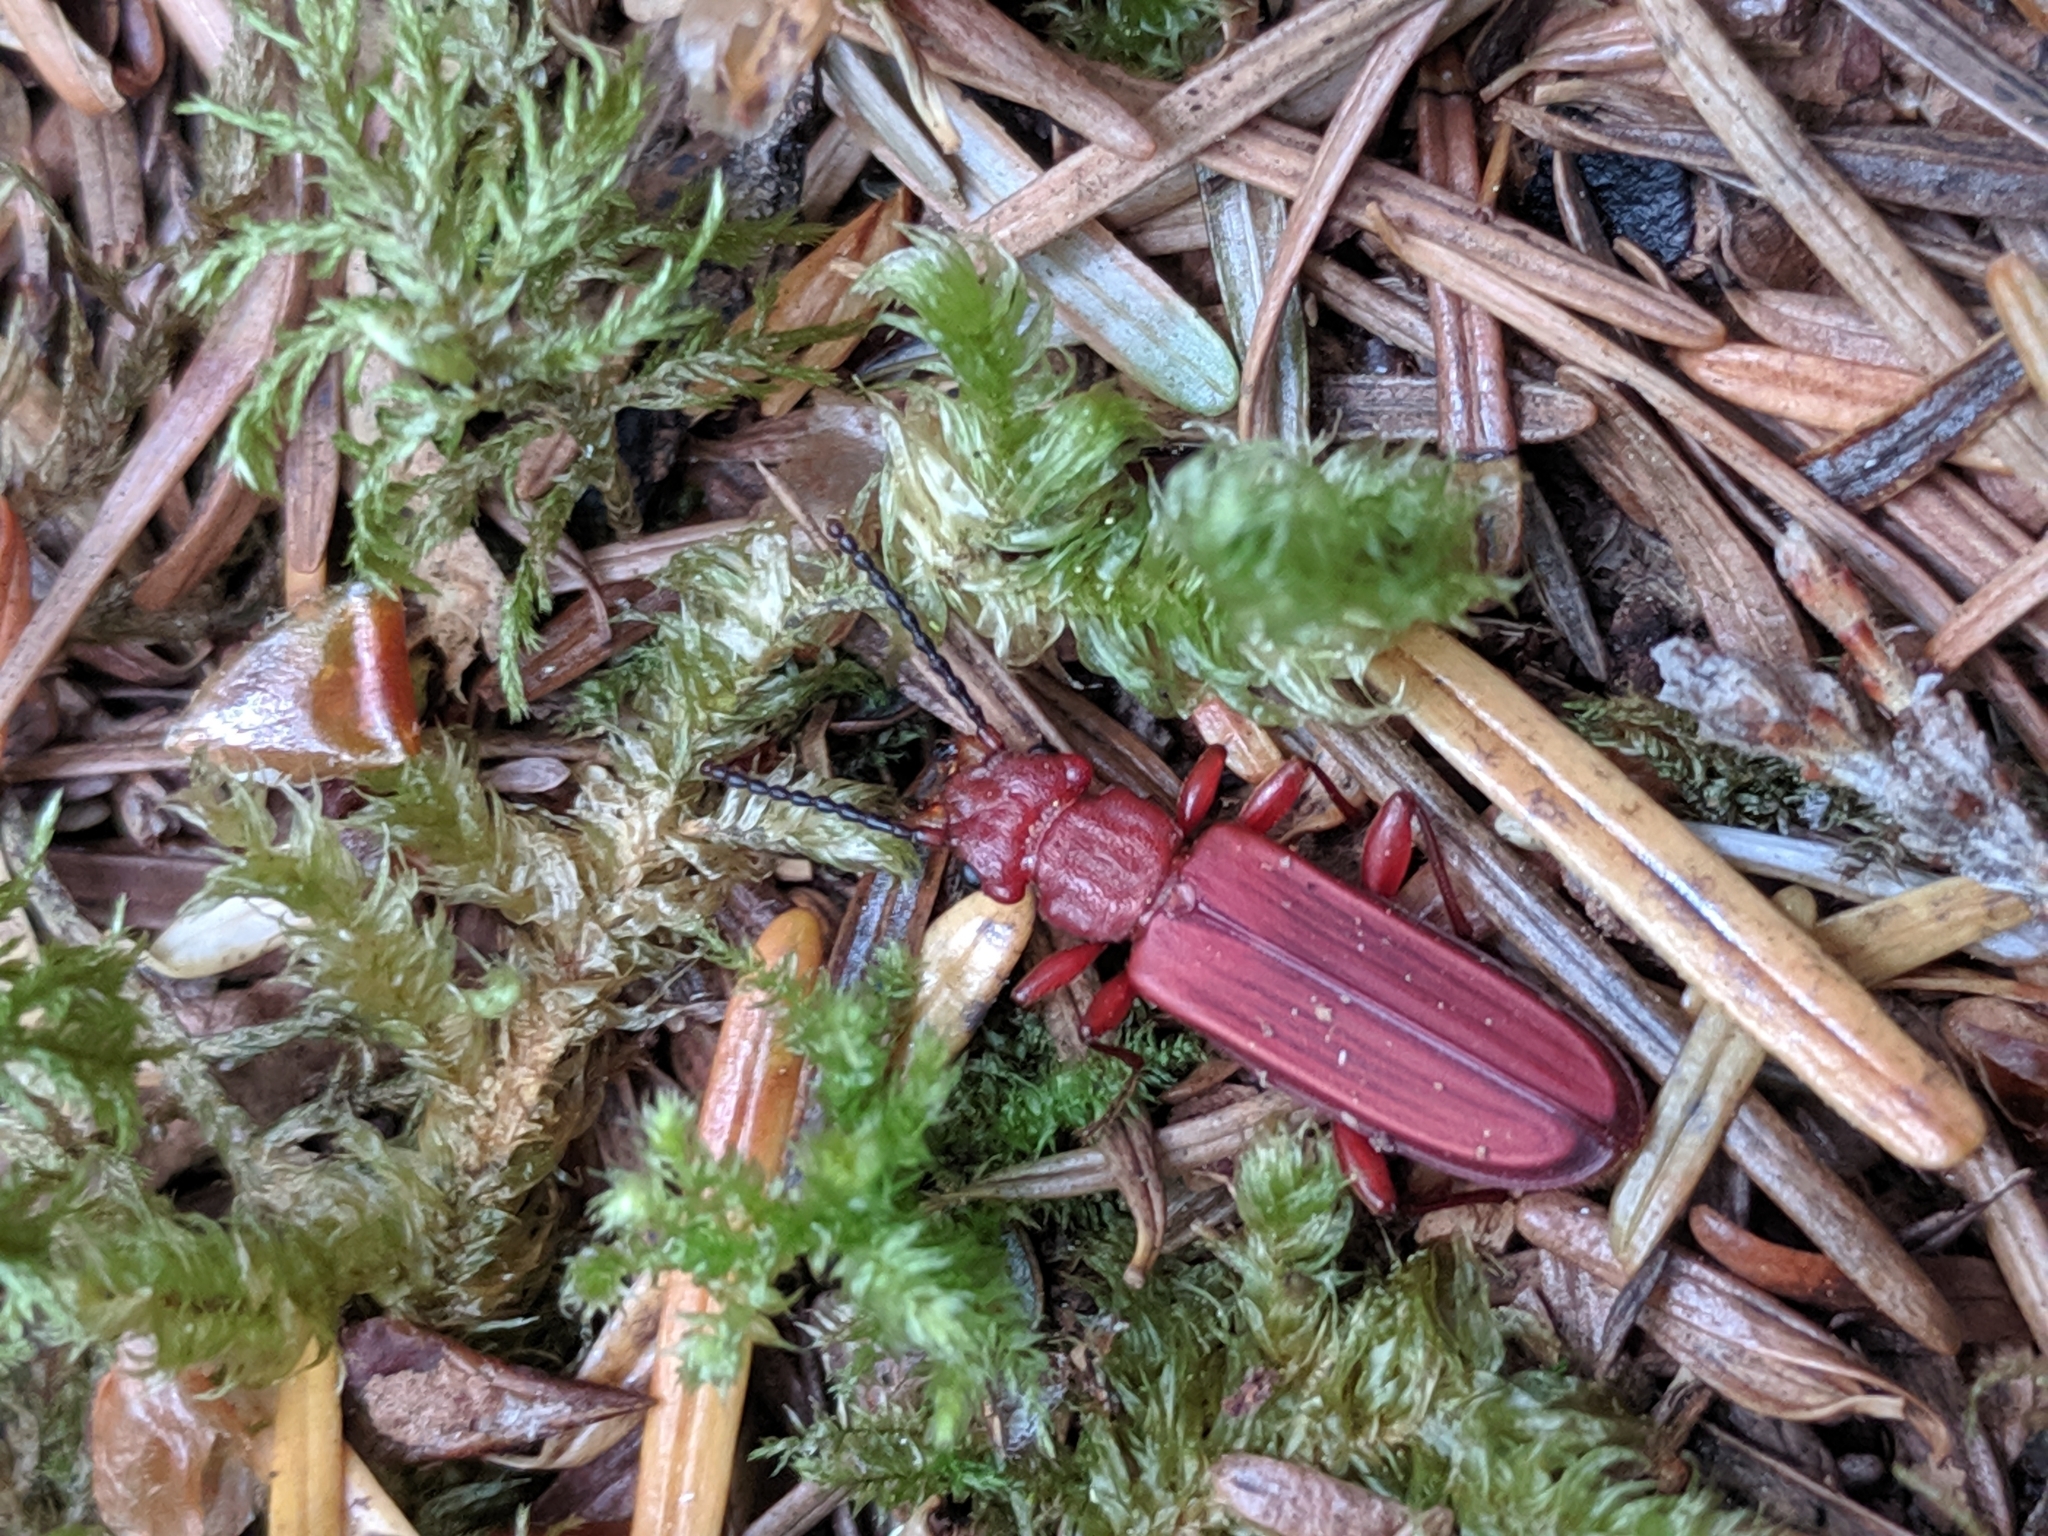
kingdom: Animalia
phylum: Arthropoda
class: Insecta
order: Coleoptera
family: Cucujidae
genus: Cucujus
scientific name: Cucujus clavipes
